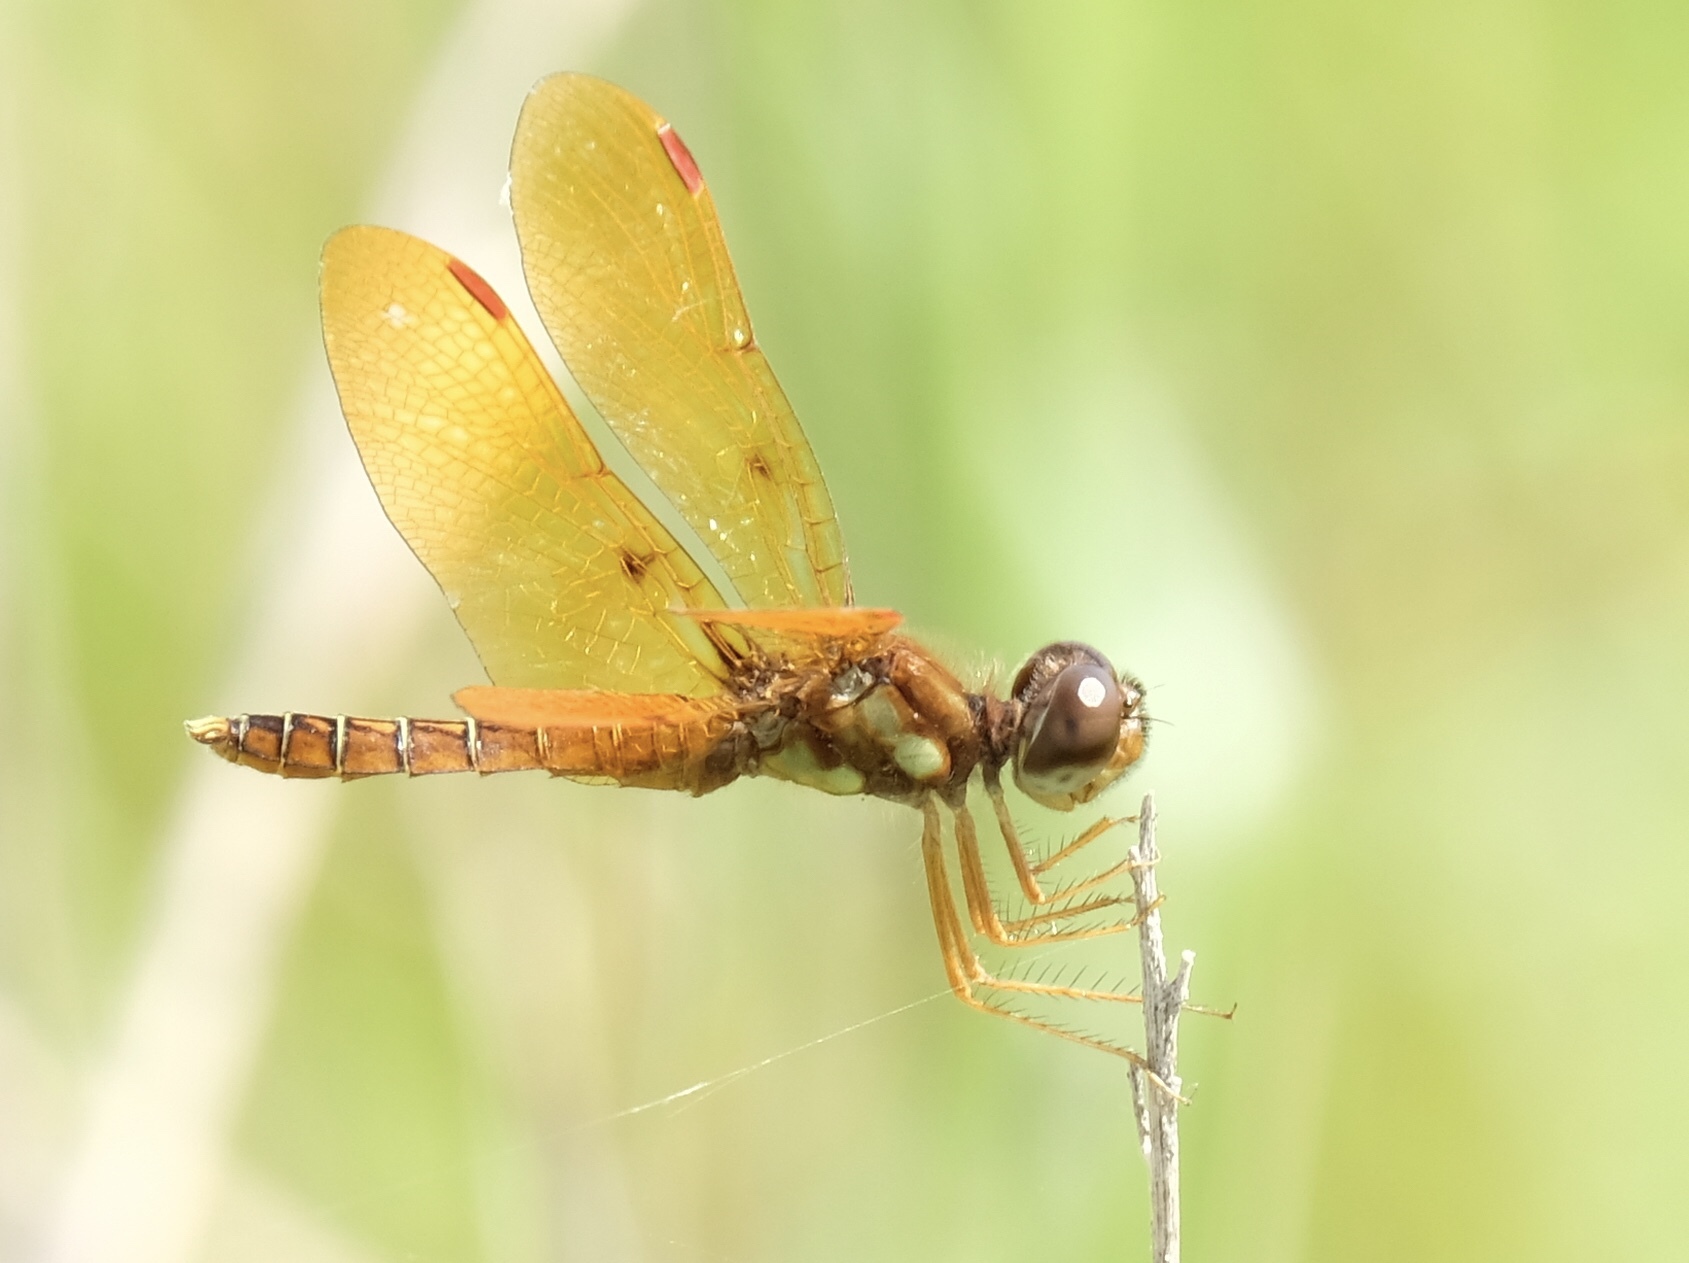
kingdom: Animalia
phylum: Arthropoda
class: Insecta
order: Odonata
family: Libellulidae
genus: Perithemis
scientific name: Perithemis tenera
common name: Eastern amberwing
